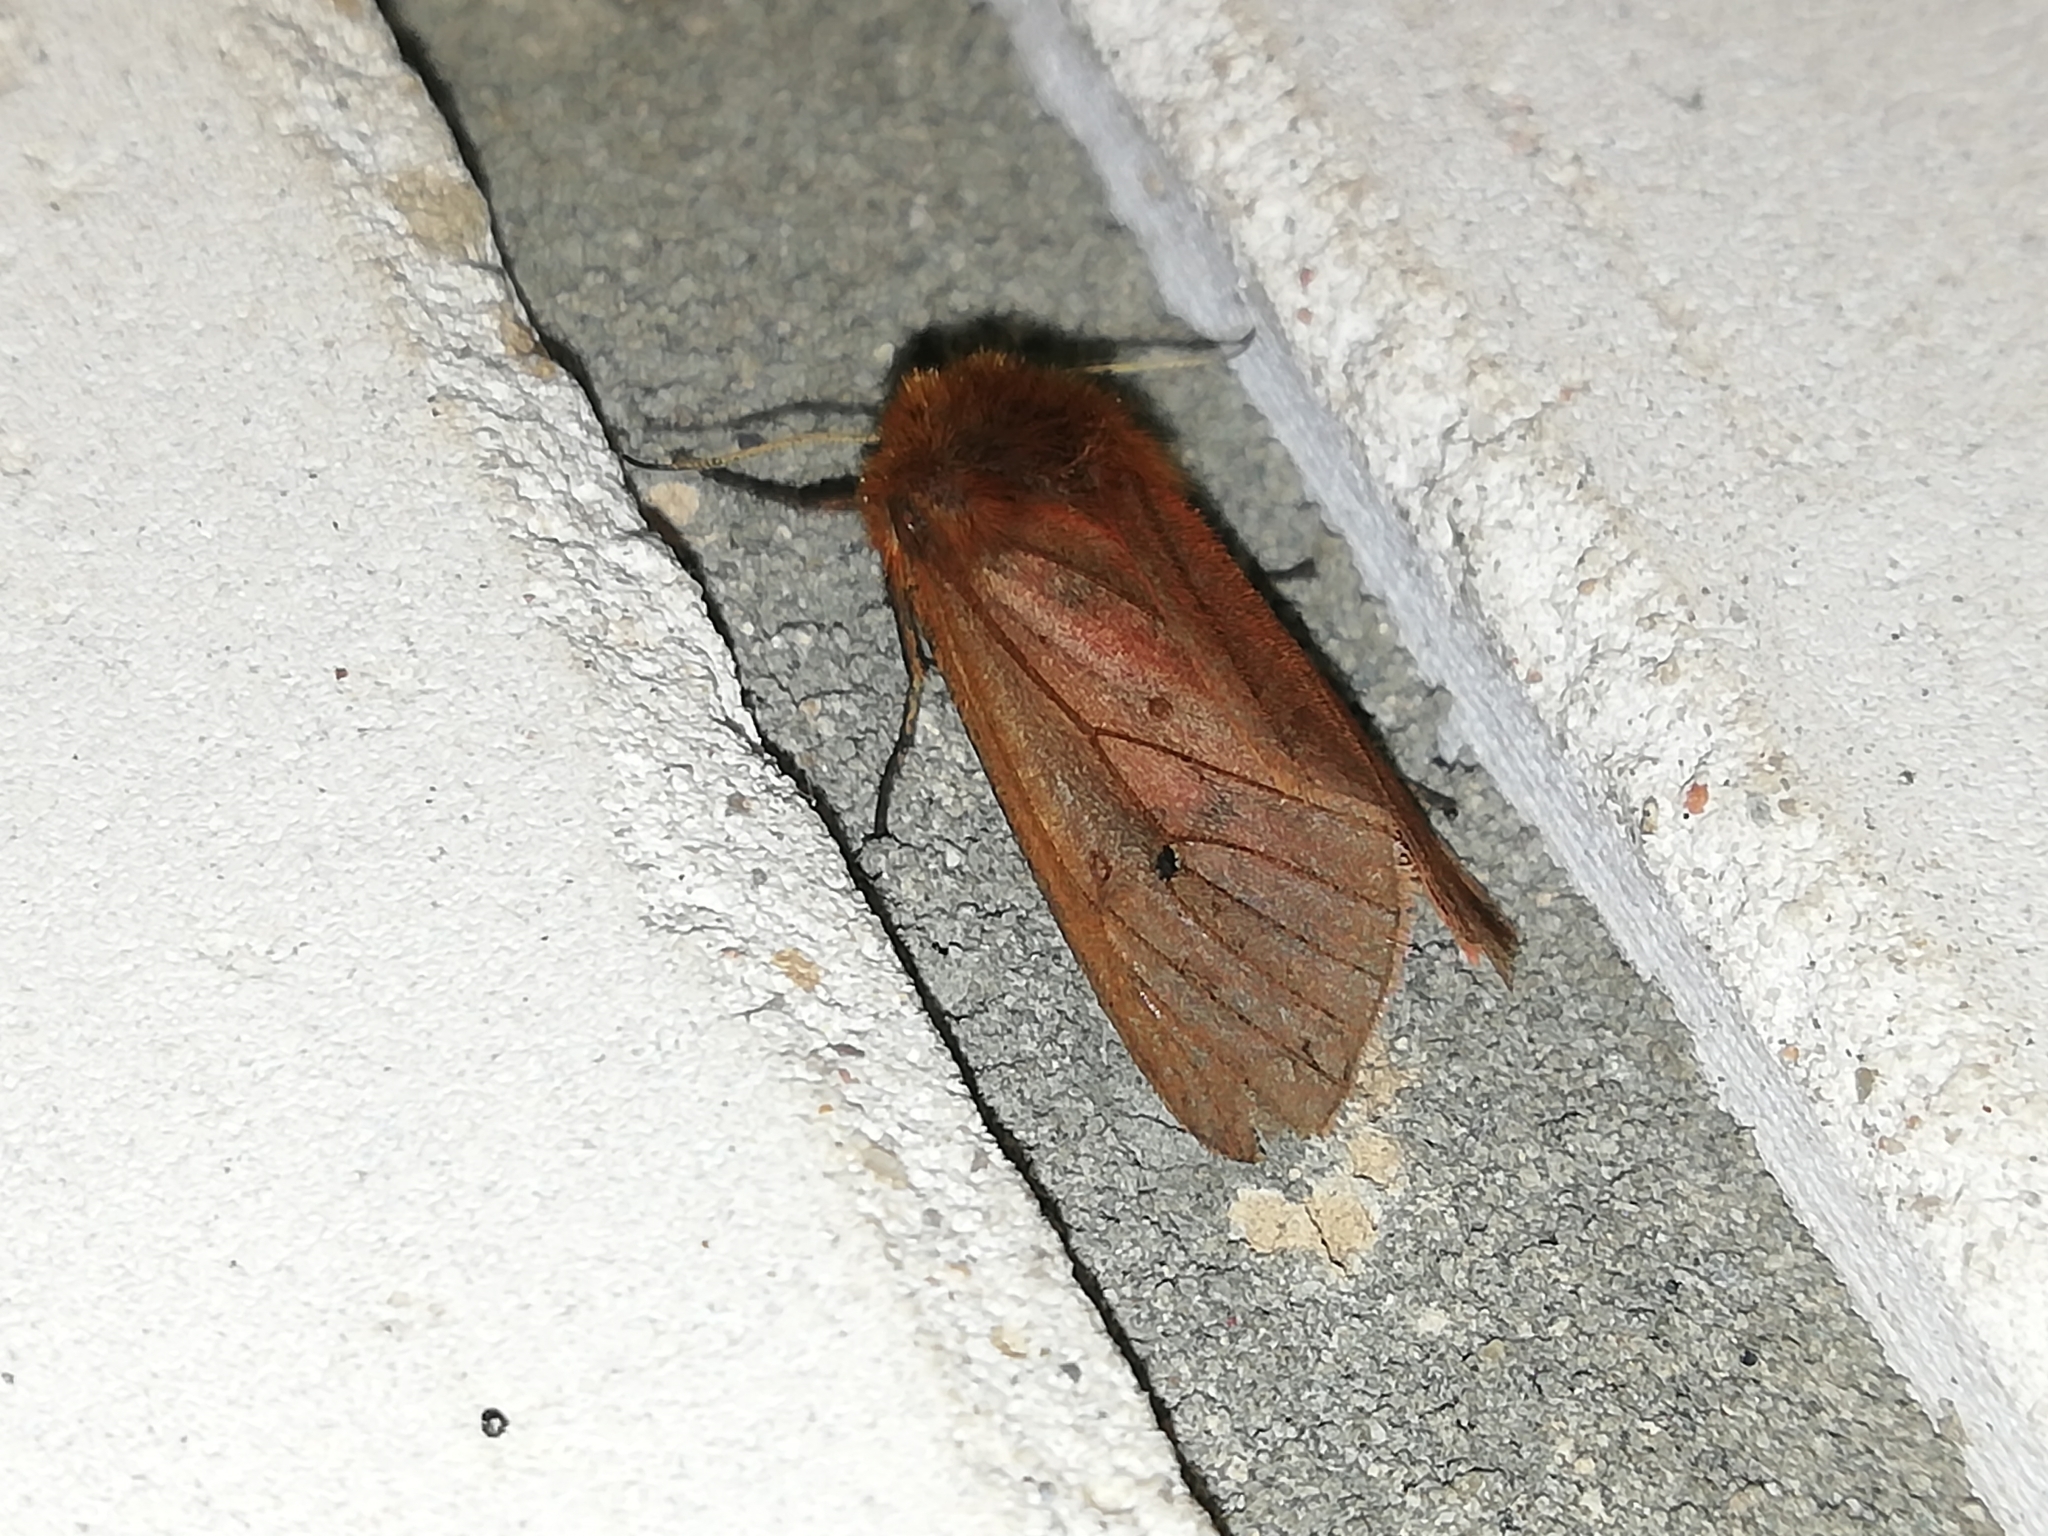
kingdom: Animalia
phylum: Arthropoda
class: Insecta
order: Lepidoptera
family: Erebidae
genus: Phragmatobia
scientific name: Phragmatobia fuliginosa
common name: Ruby tiger
